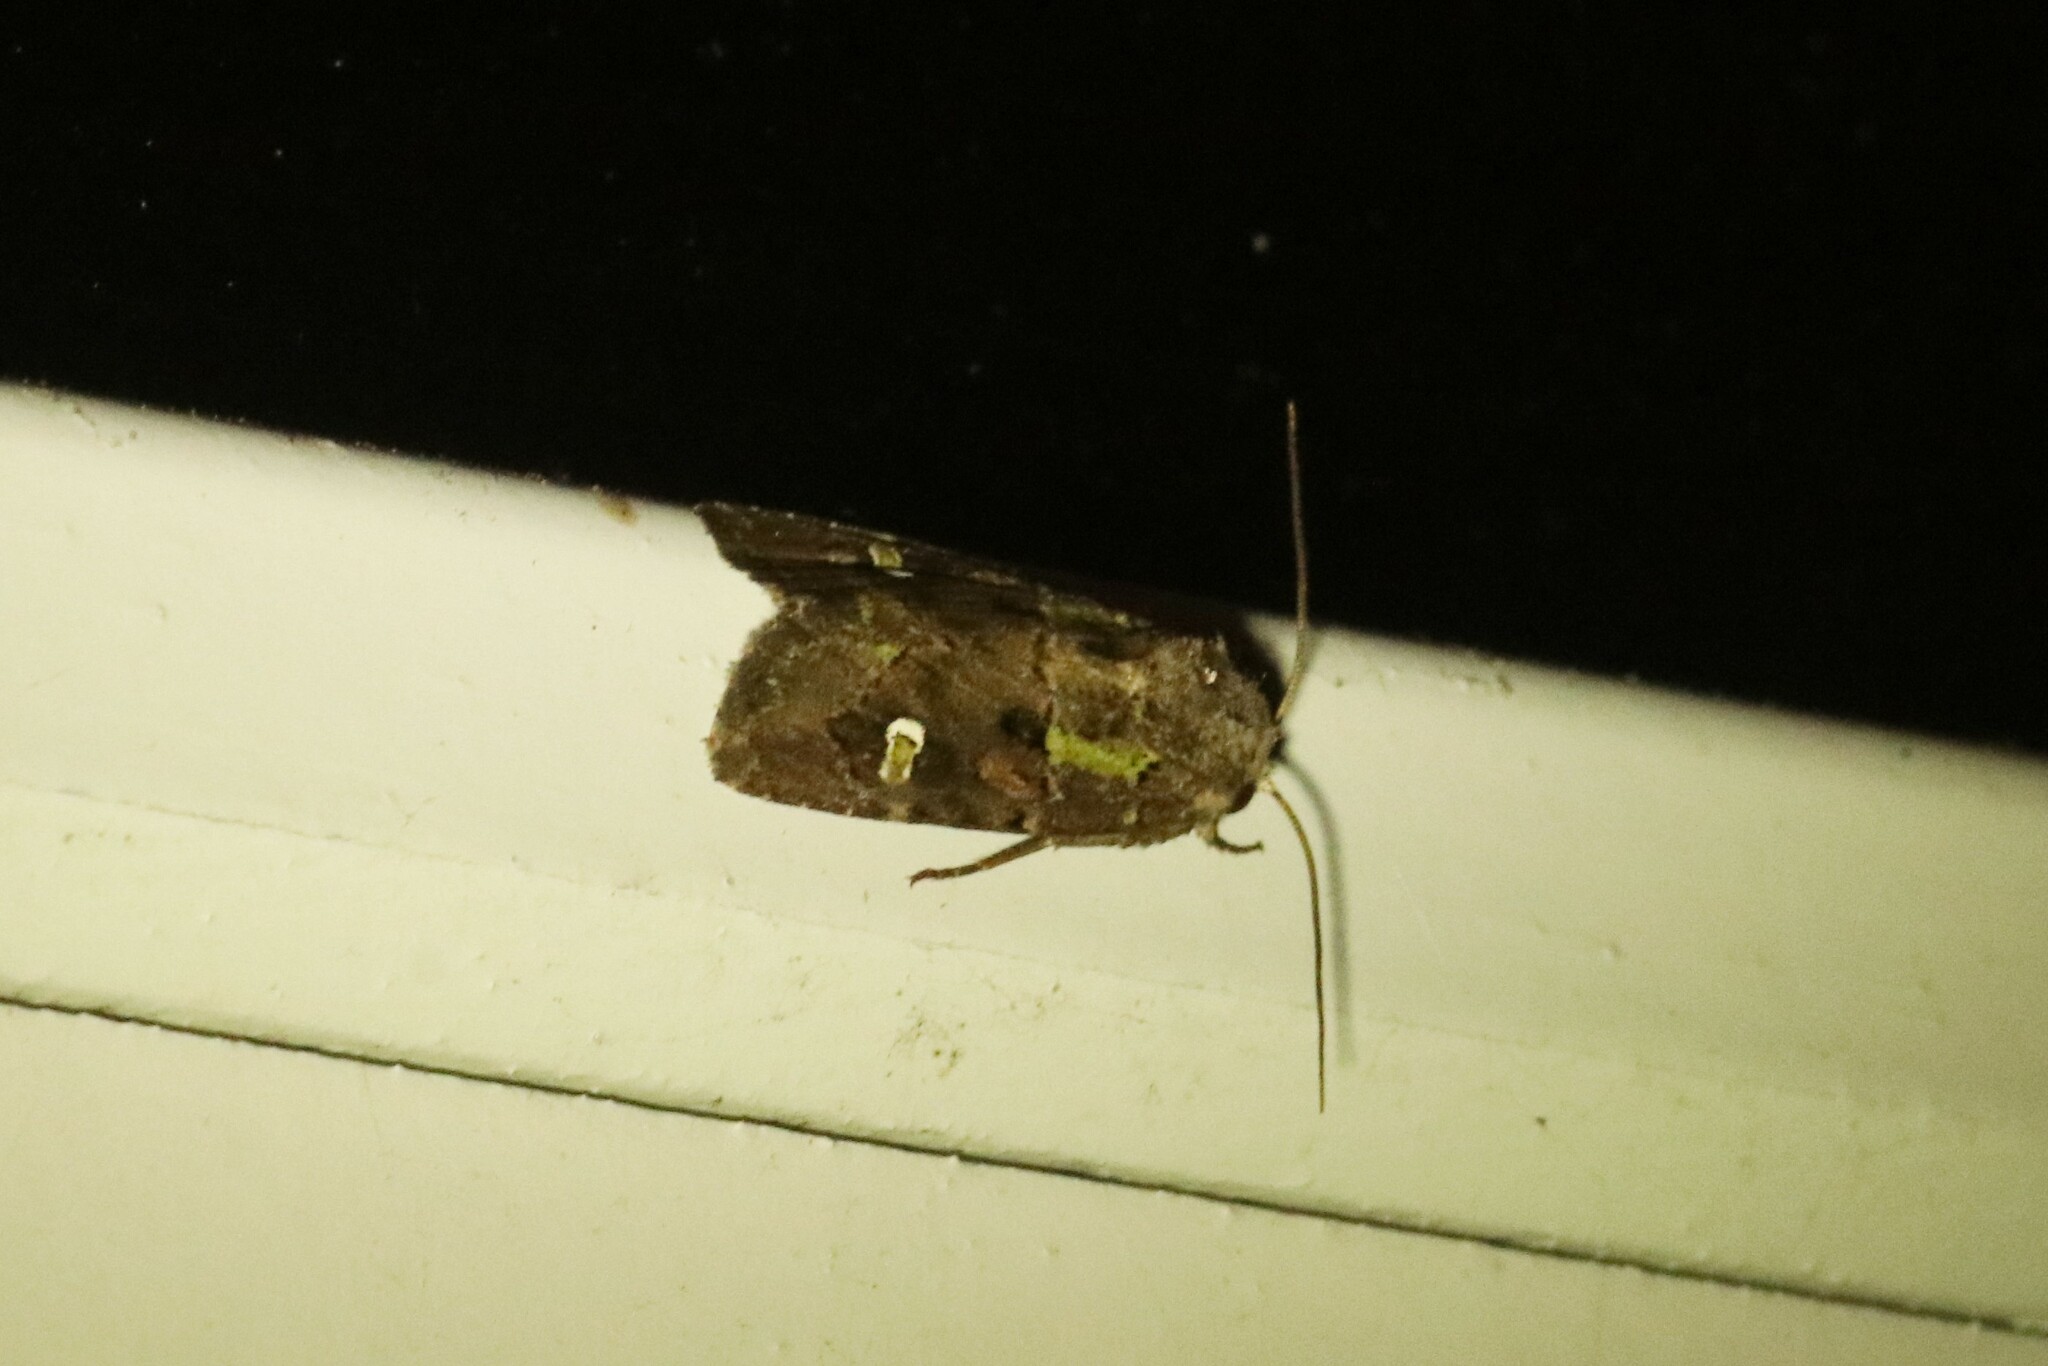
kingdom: Animalia
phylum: Arthropoda
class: Insecta
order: Lepidoptera
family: Noctuidae
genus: Lacinipolia
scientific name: Lacinipolia renigera
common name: Kidney-spotted minor
